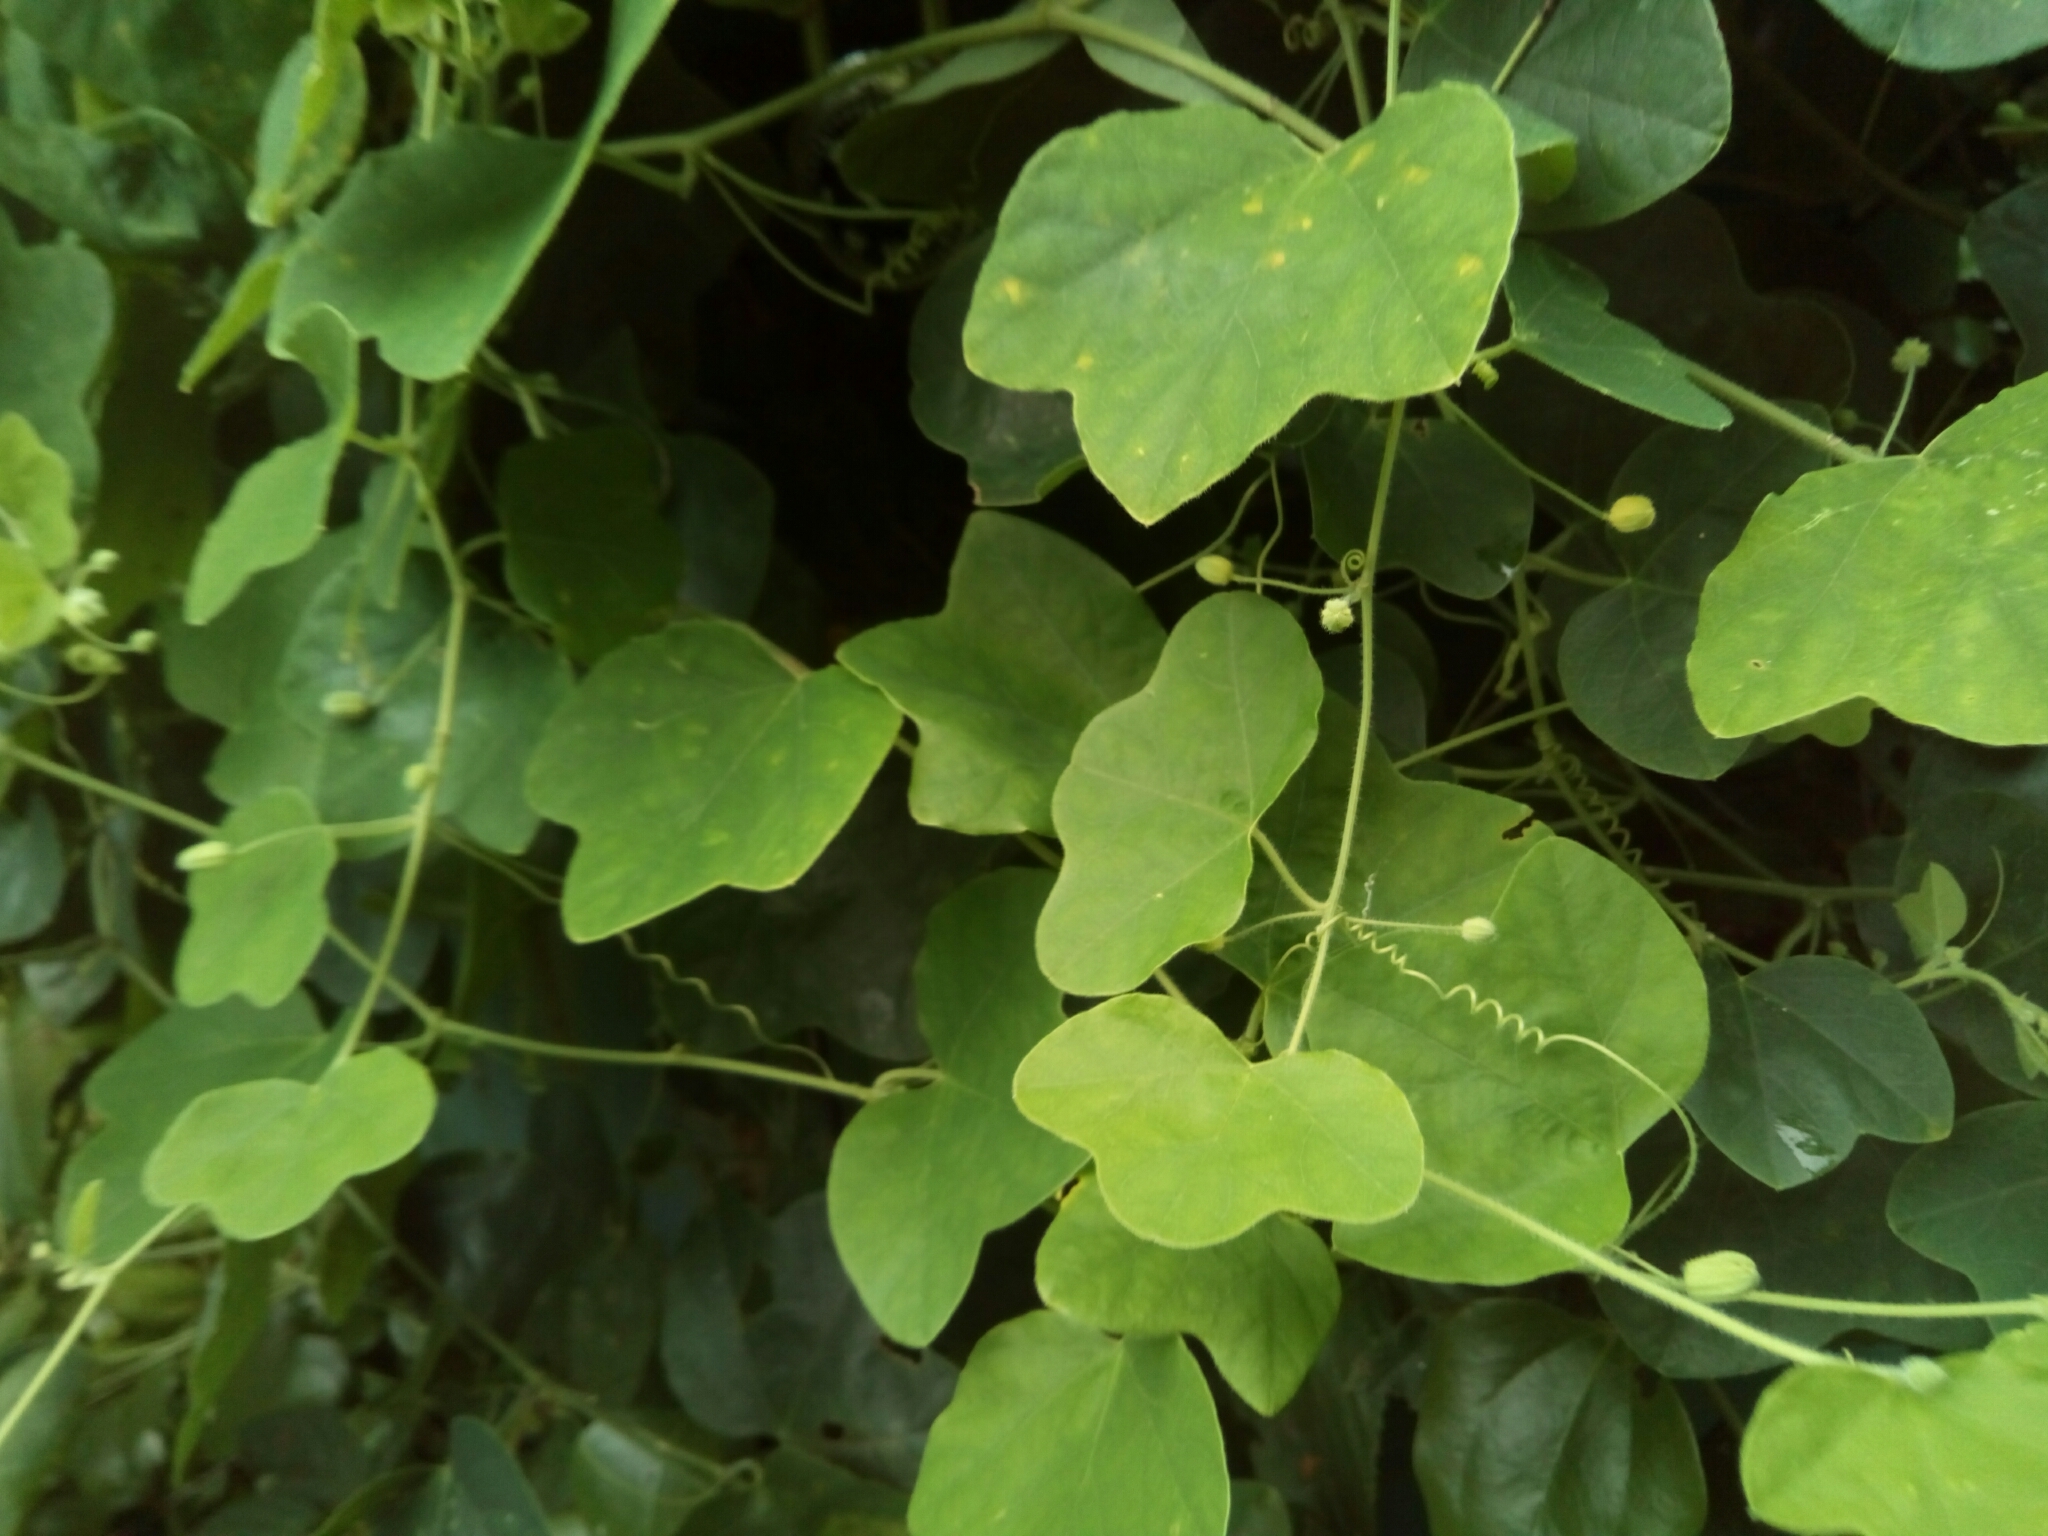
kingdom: Plantae
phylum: Tracheophyta
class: Magnoliopsida
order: Malpighiales
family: Passifloraceae
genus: Passiflora
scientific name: Passiflora lutea
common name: Yellow passionflower
